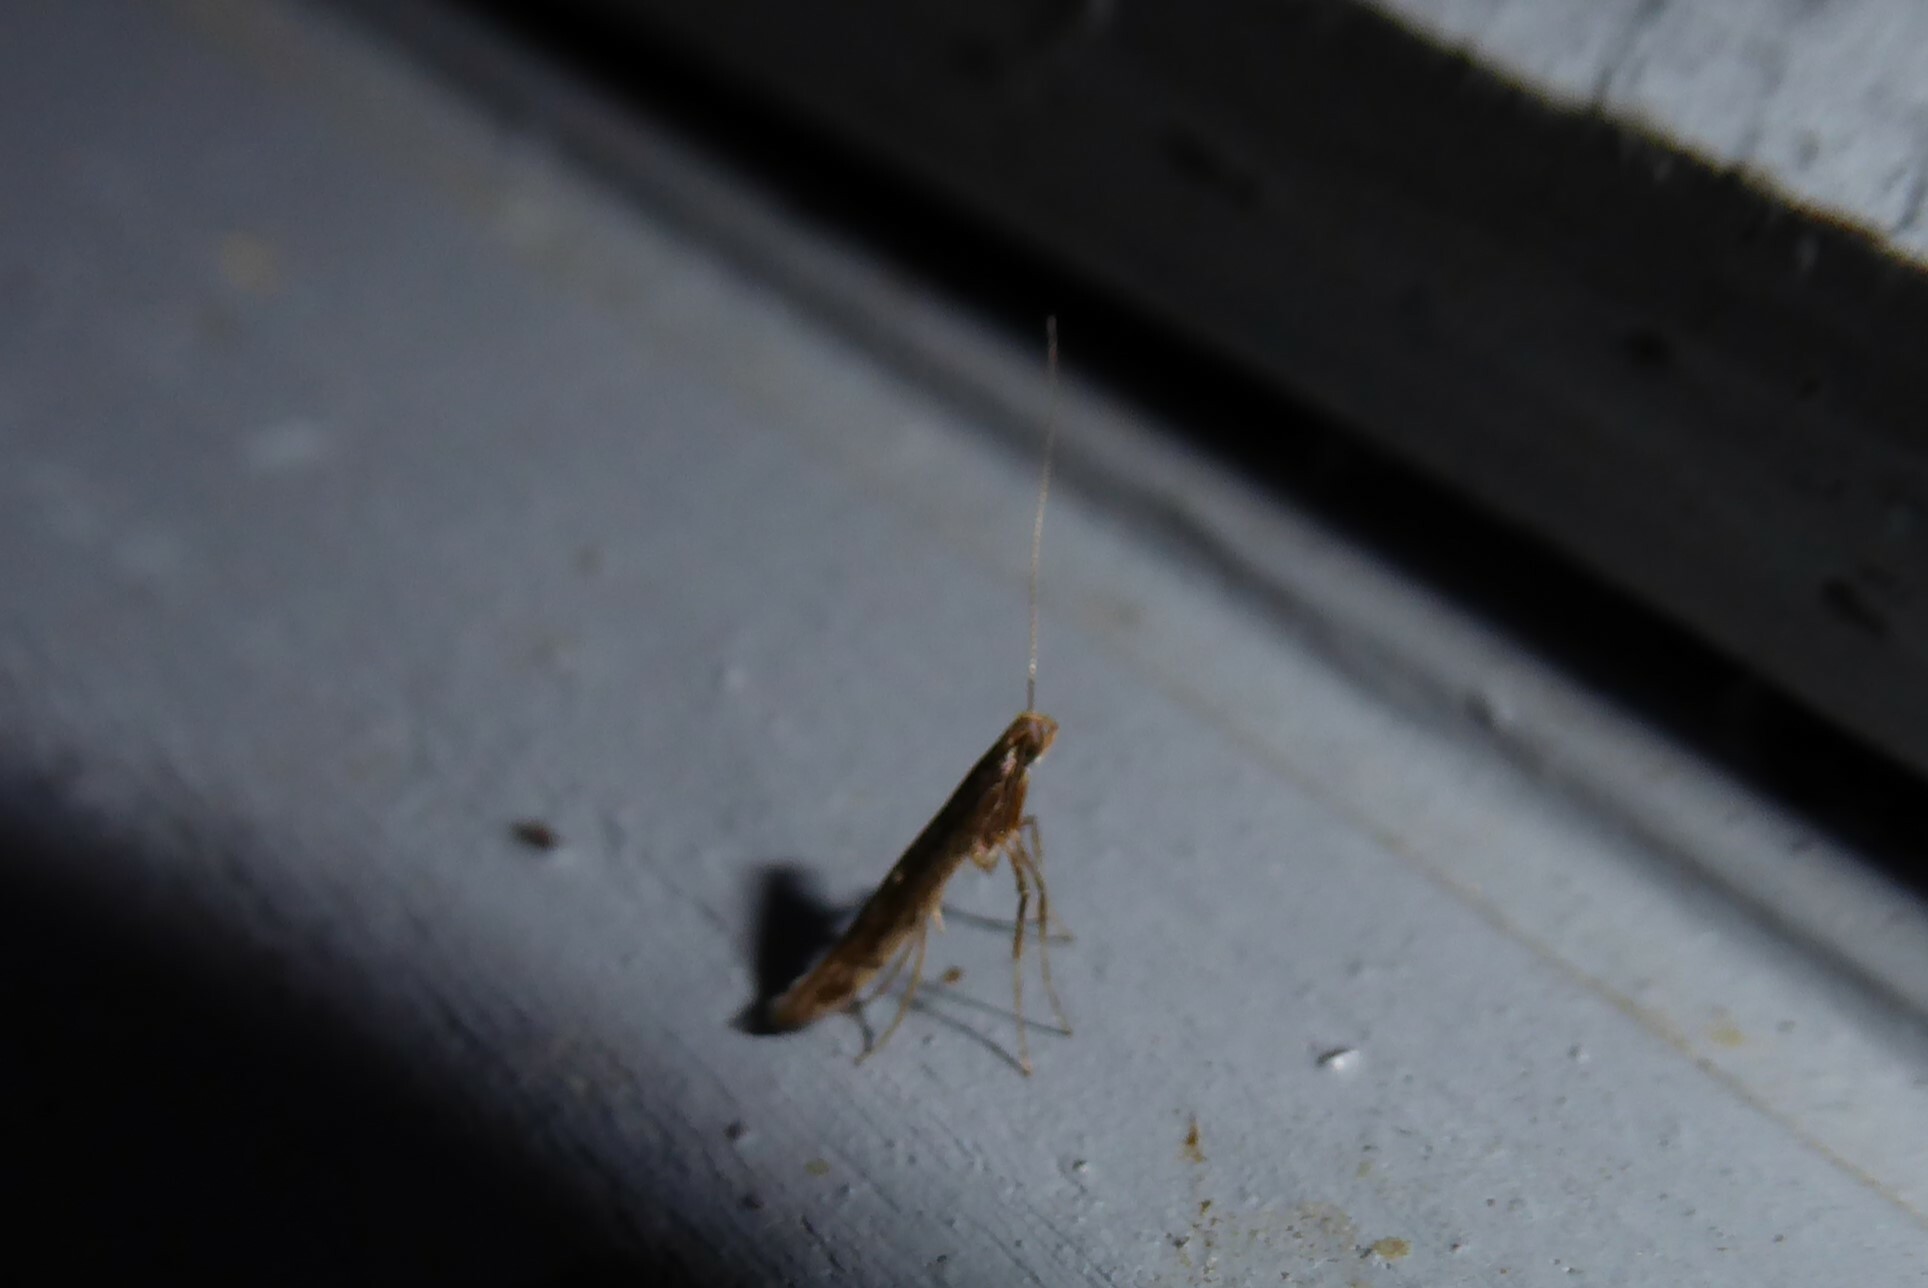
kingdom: Animalia
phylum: Arthropoda
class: Insecta
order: Lepidoptera
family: Gracillariidae
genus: Caloptilia
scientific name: Caloptilia azaleella
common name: Azalea leafminer
